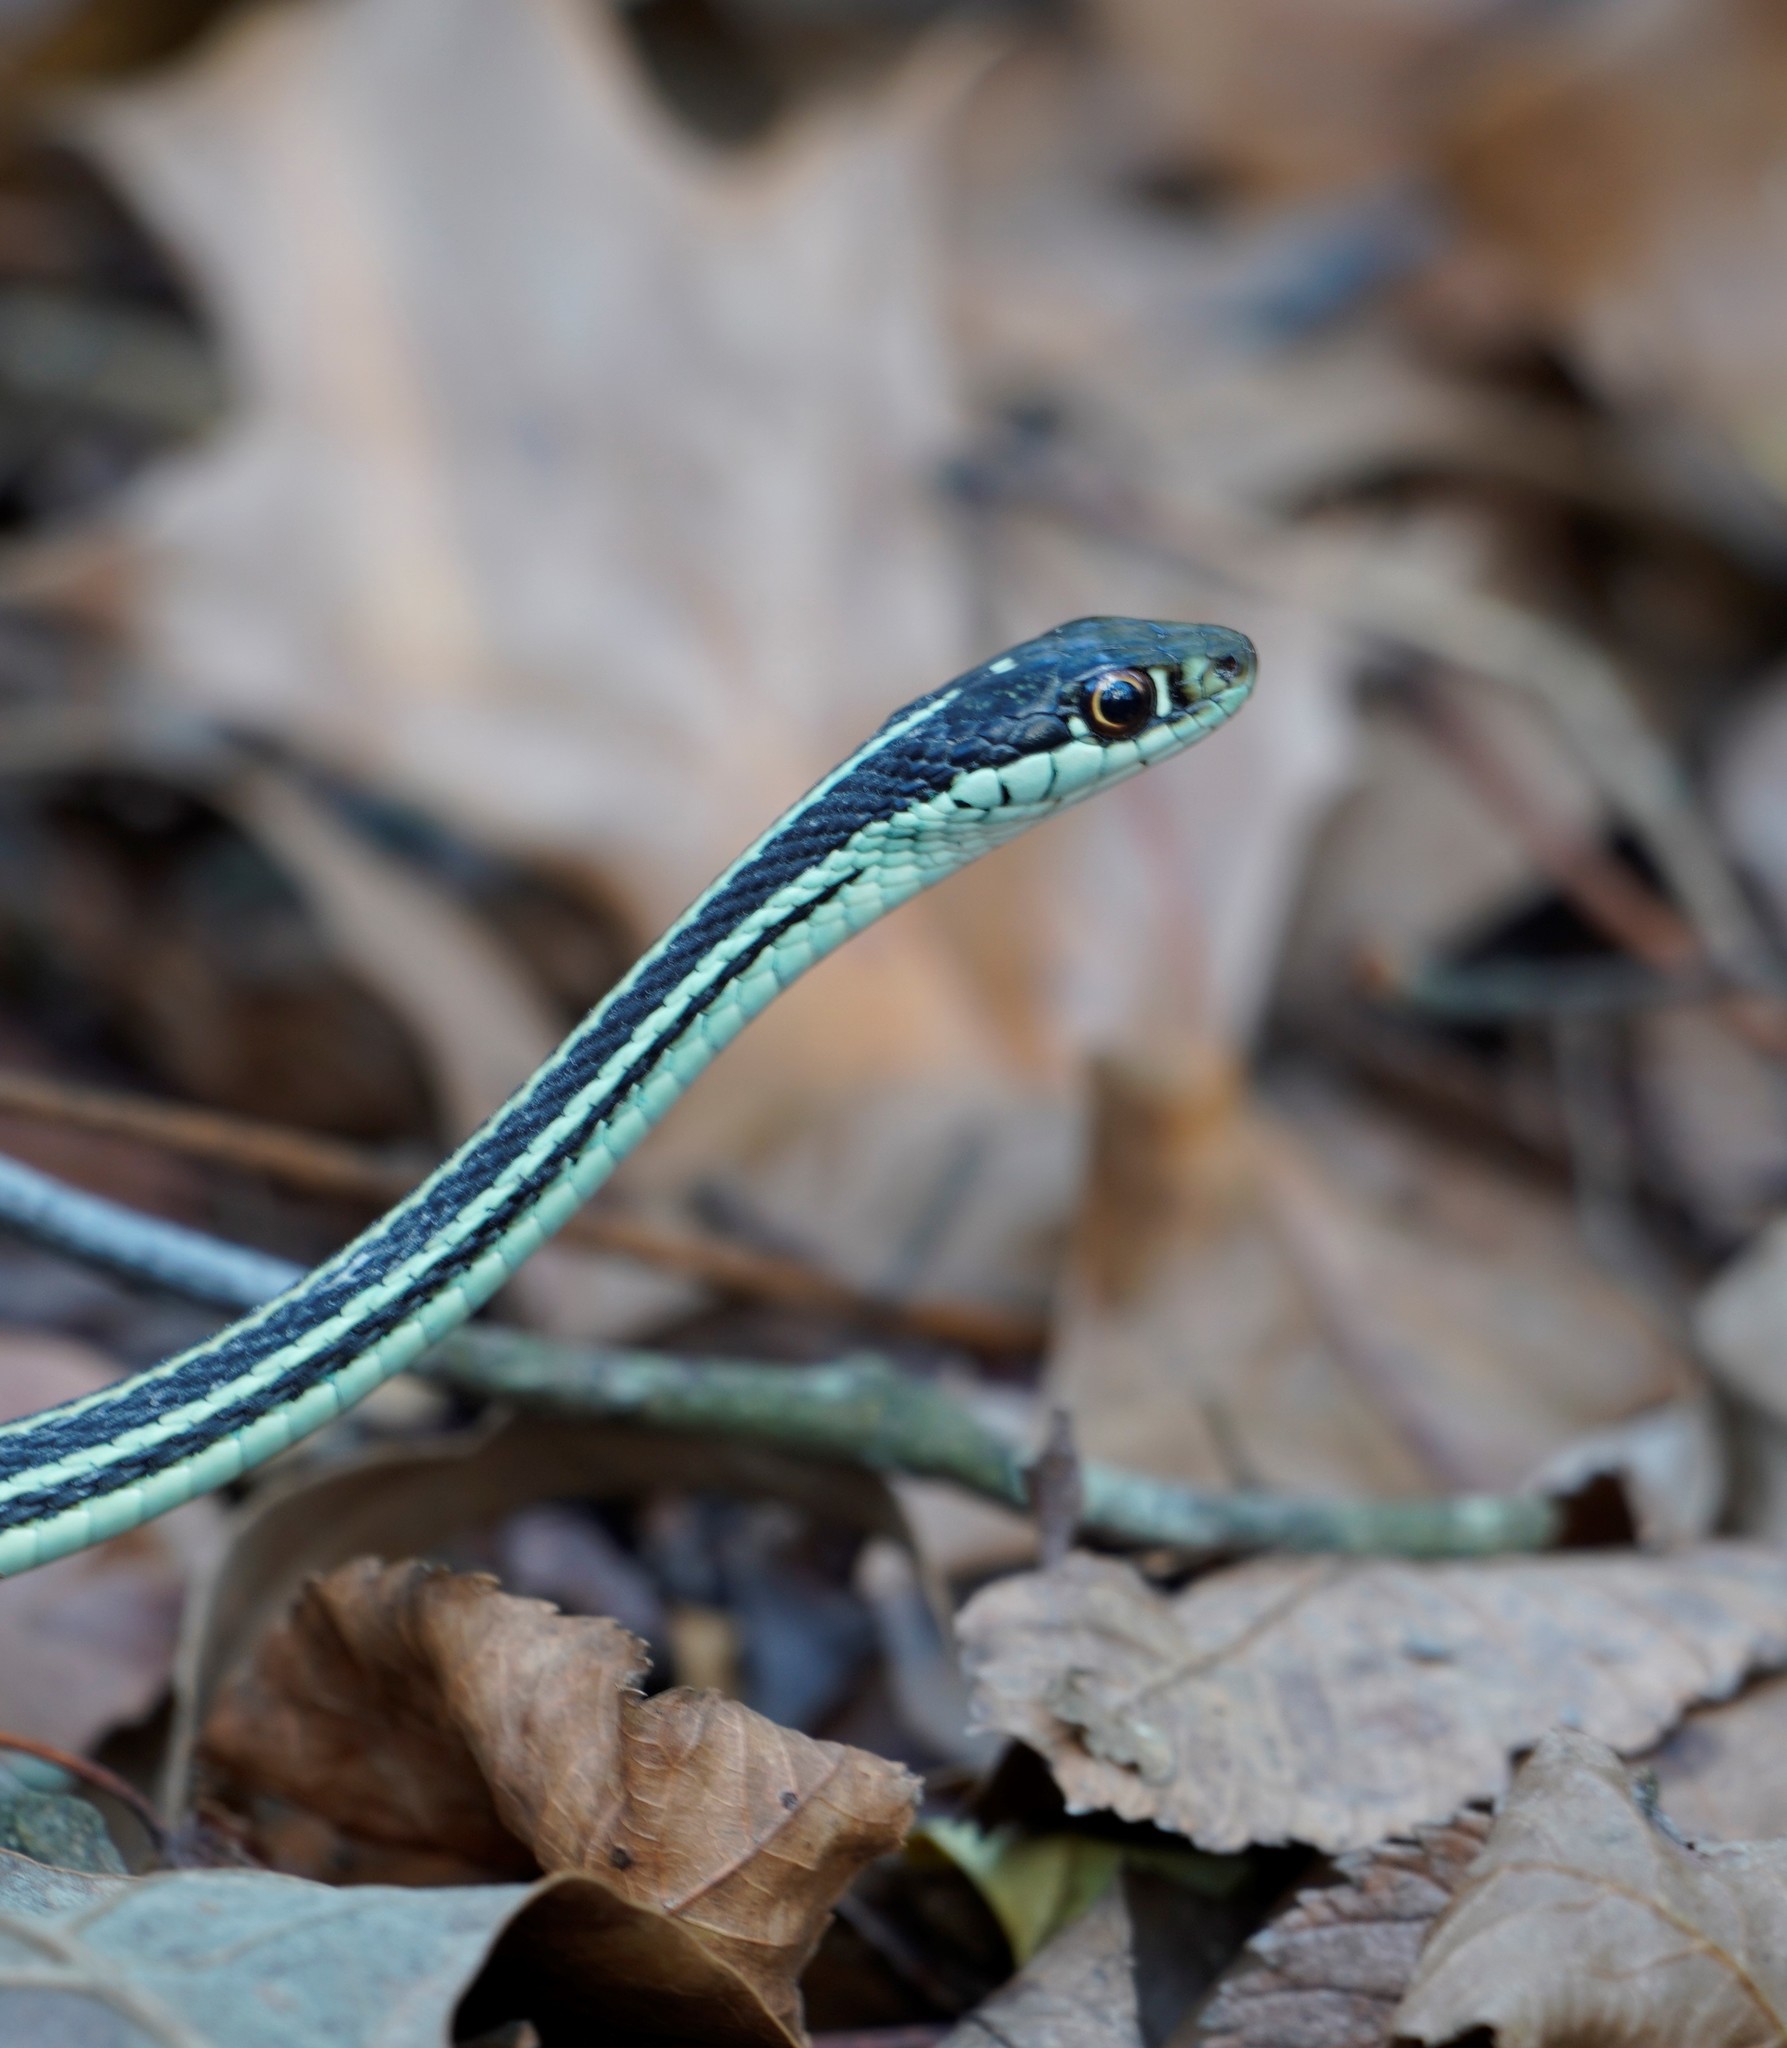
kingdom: Animalia
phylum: Chordata
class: Squamata
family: Colubridae
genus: Thamnophis
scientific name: Thamnophis proximus
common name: Western ribbon snake
